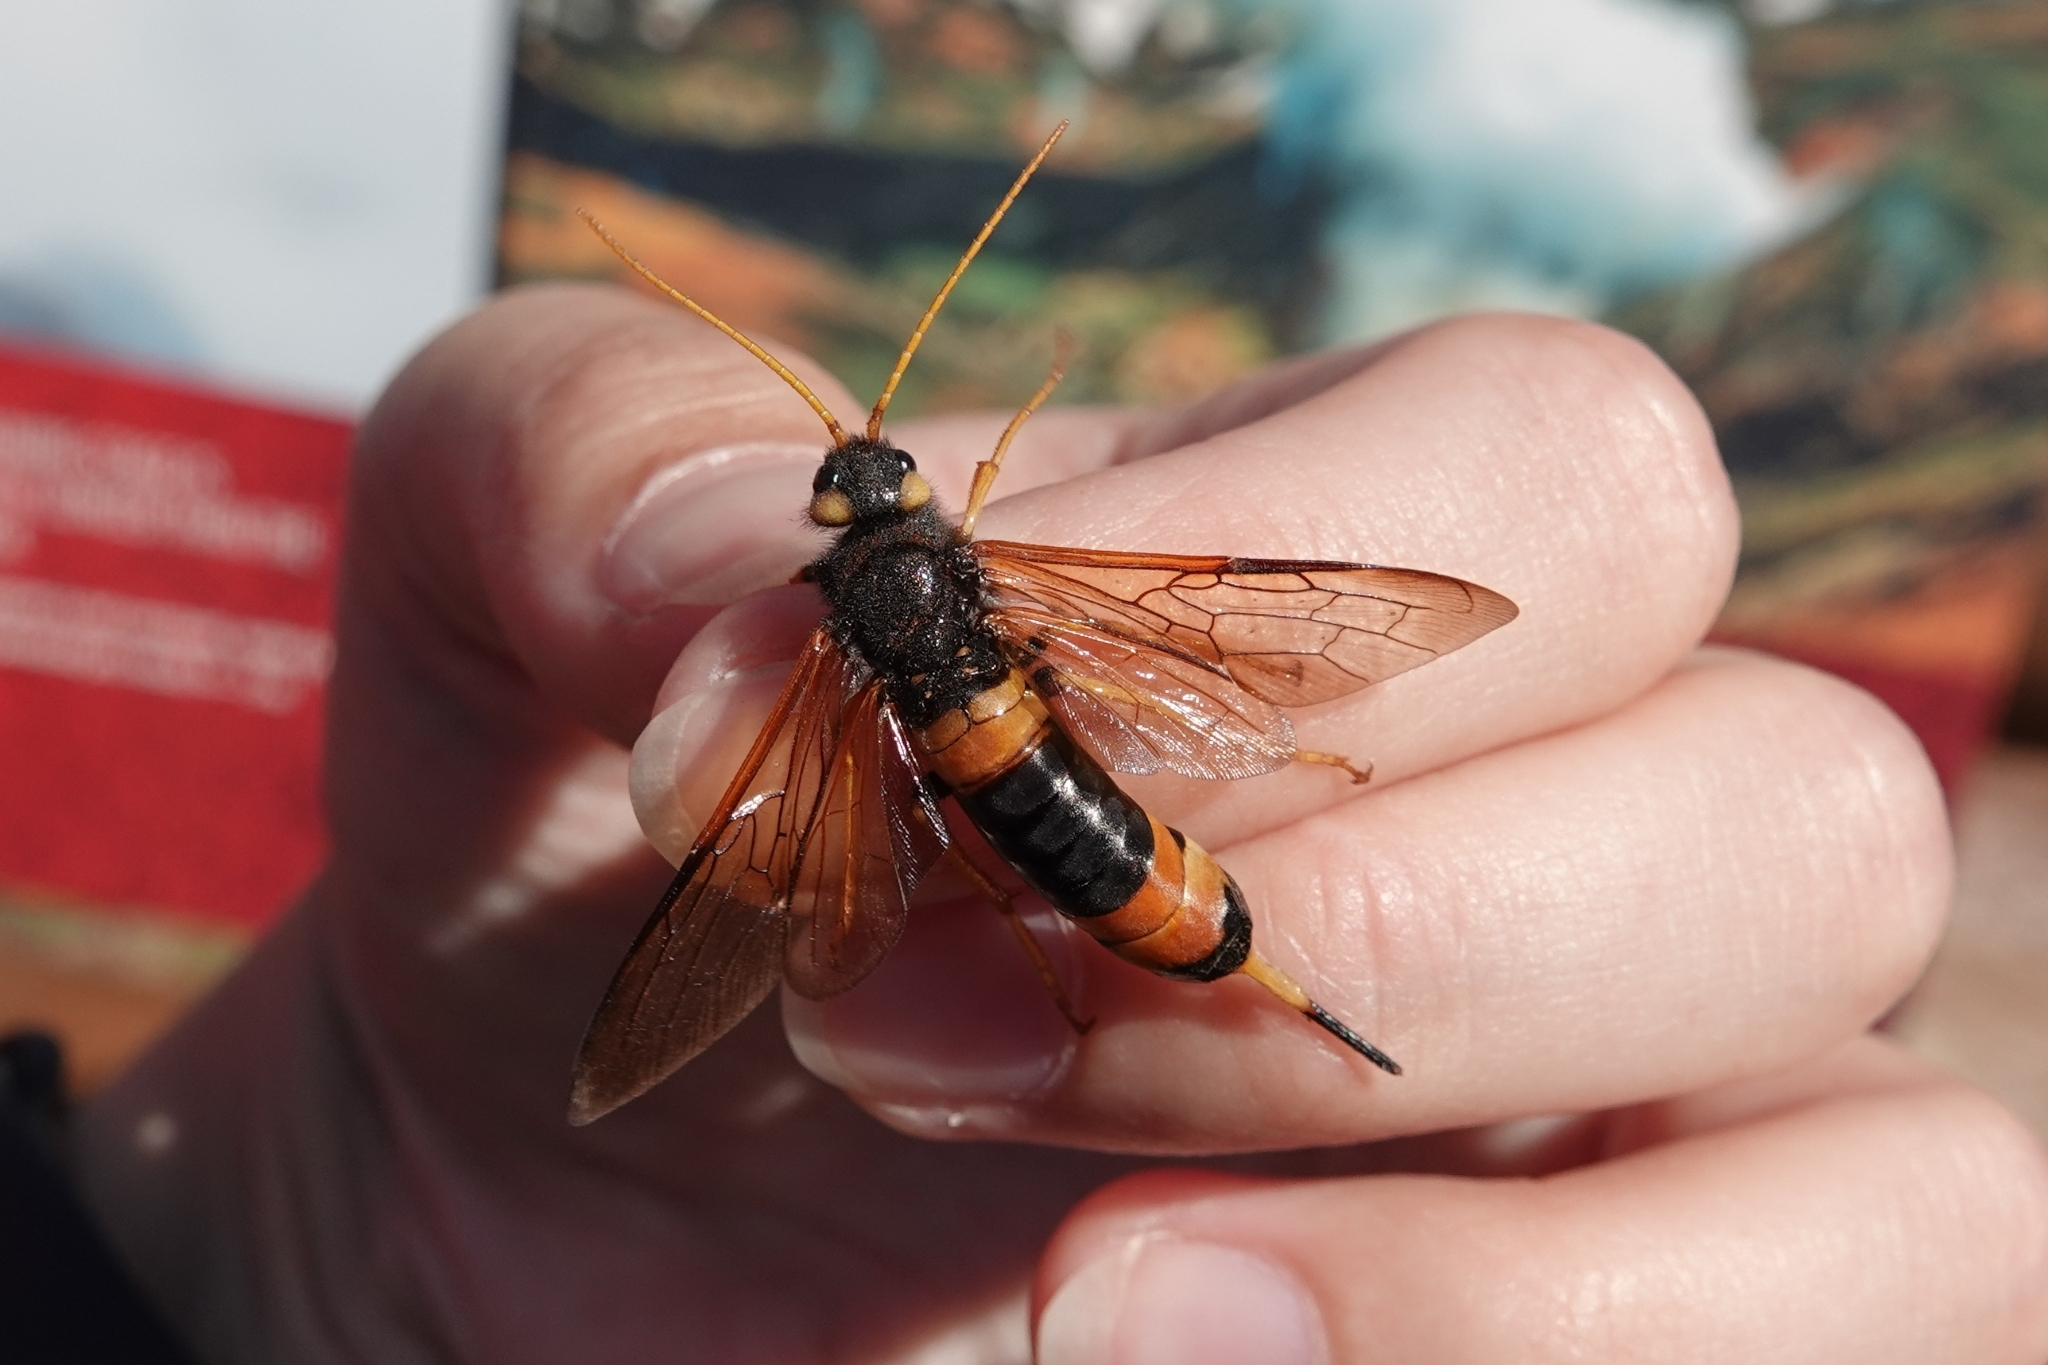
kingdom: Animalia
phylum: Arthropoda
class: Insecta
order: Hymenoptera
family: Siricidae
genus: Urocerus
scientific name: Urocerus gigas
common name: Giant woodwasp
